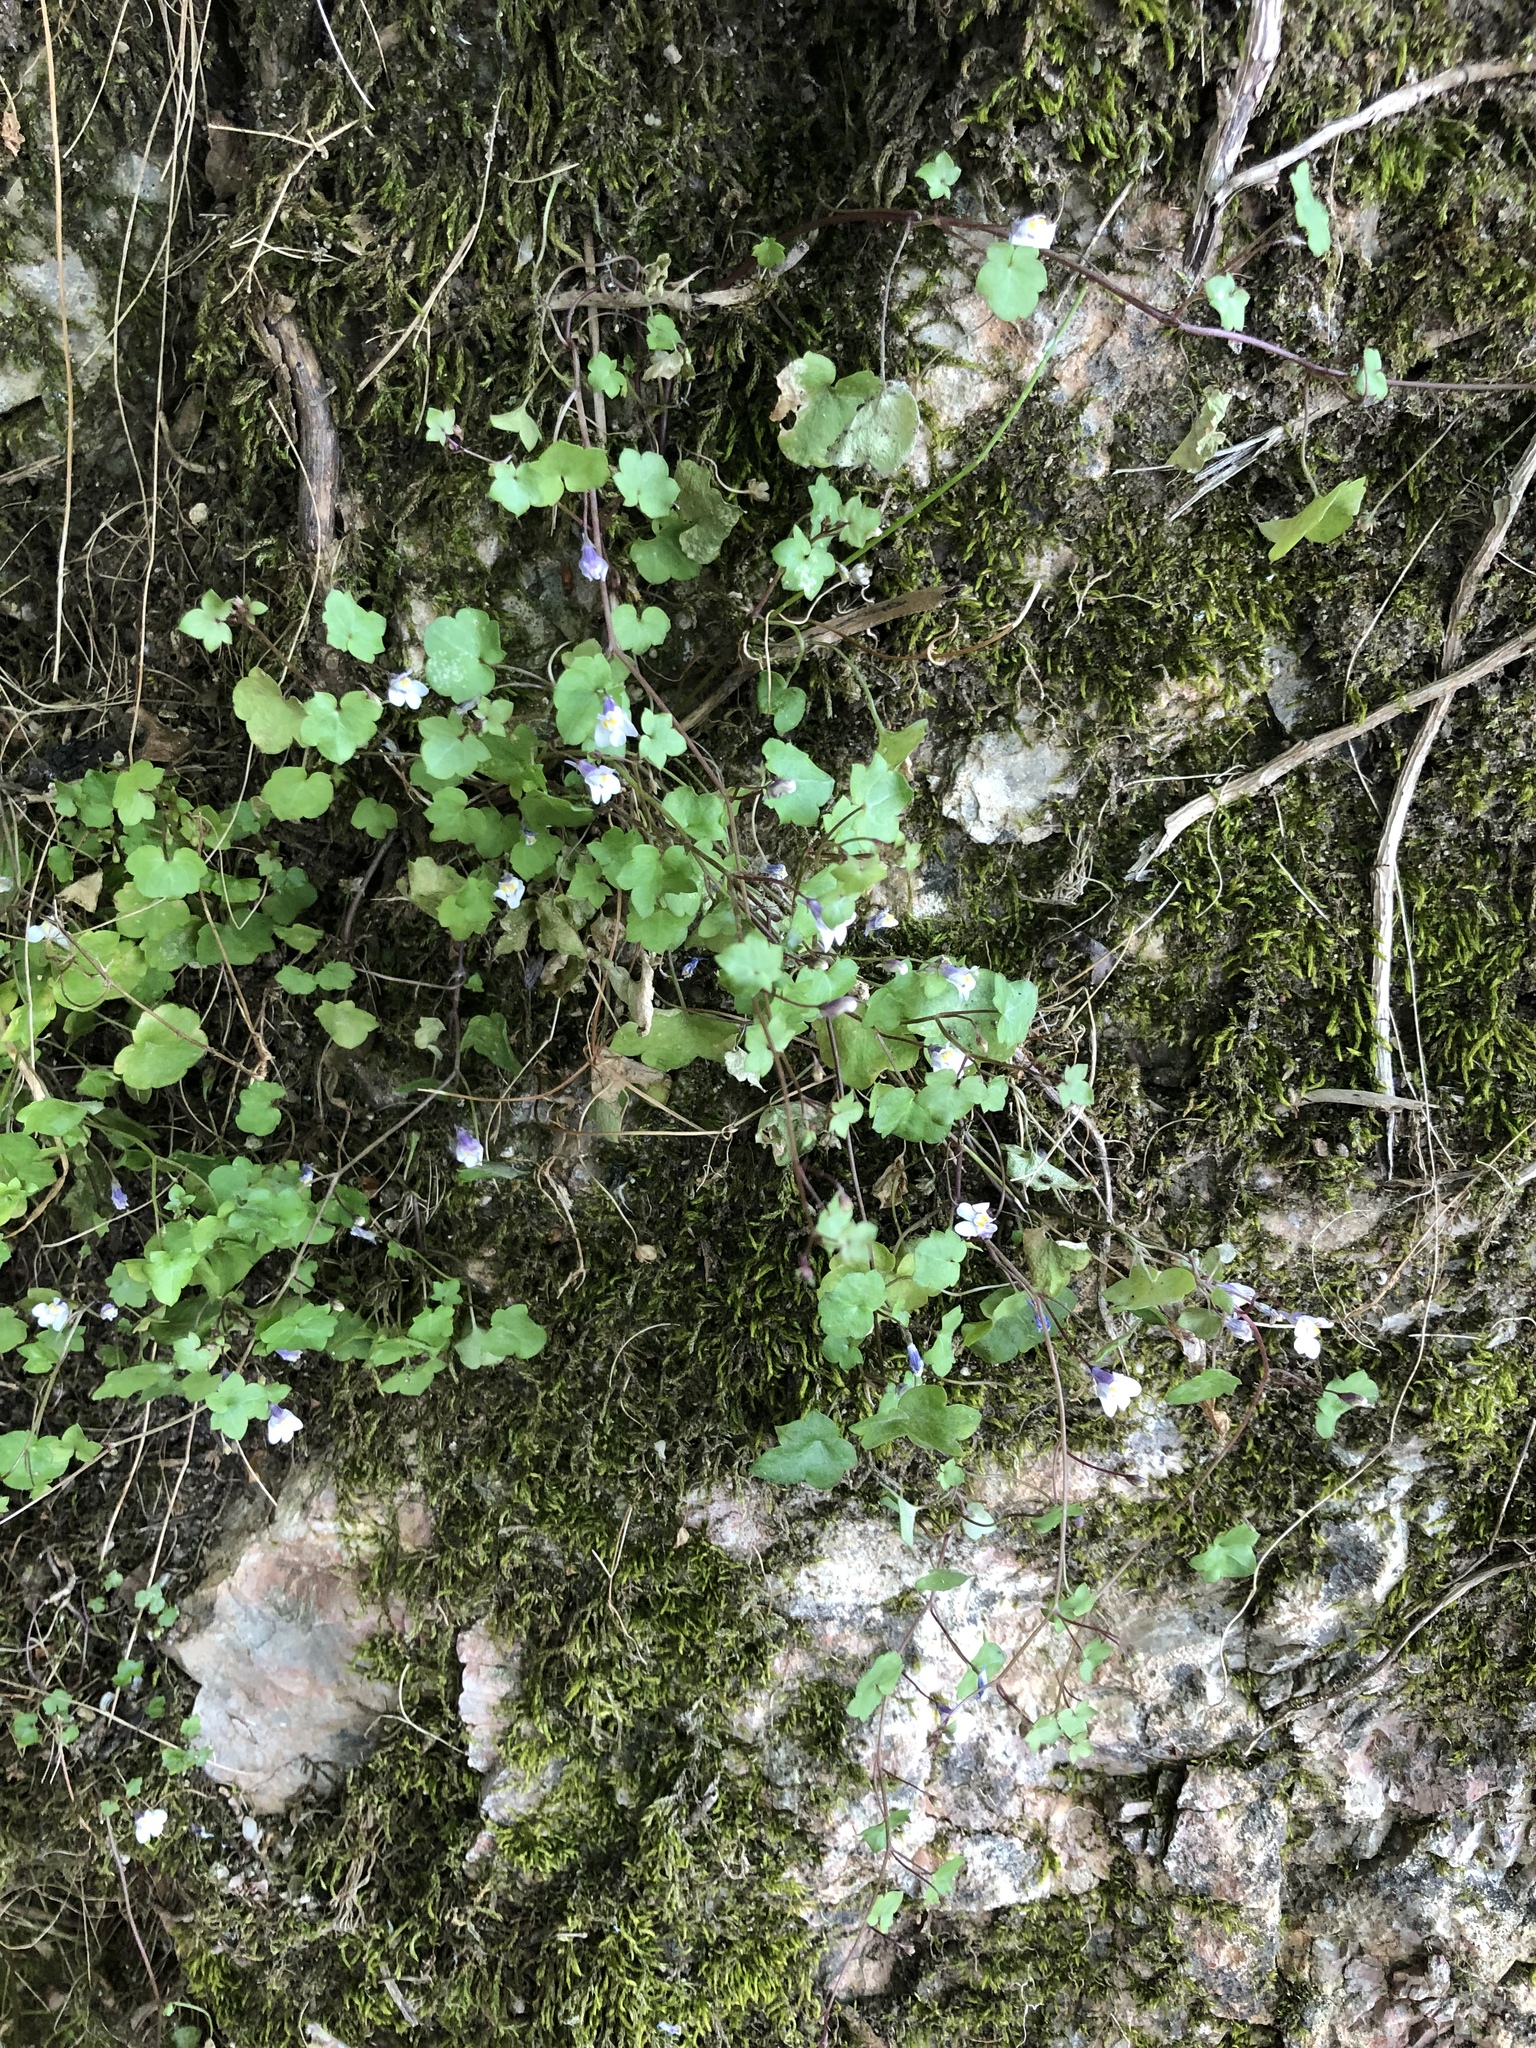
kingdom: Plantae
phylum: Tracheophyta
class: Magnoliopsida
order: Lamiales
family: Plantaginaceae
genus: Cymbalaria
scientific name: Cymbalaria muralis
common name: Ivy-leaved toadflax
